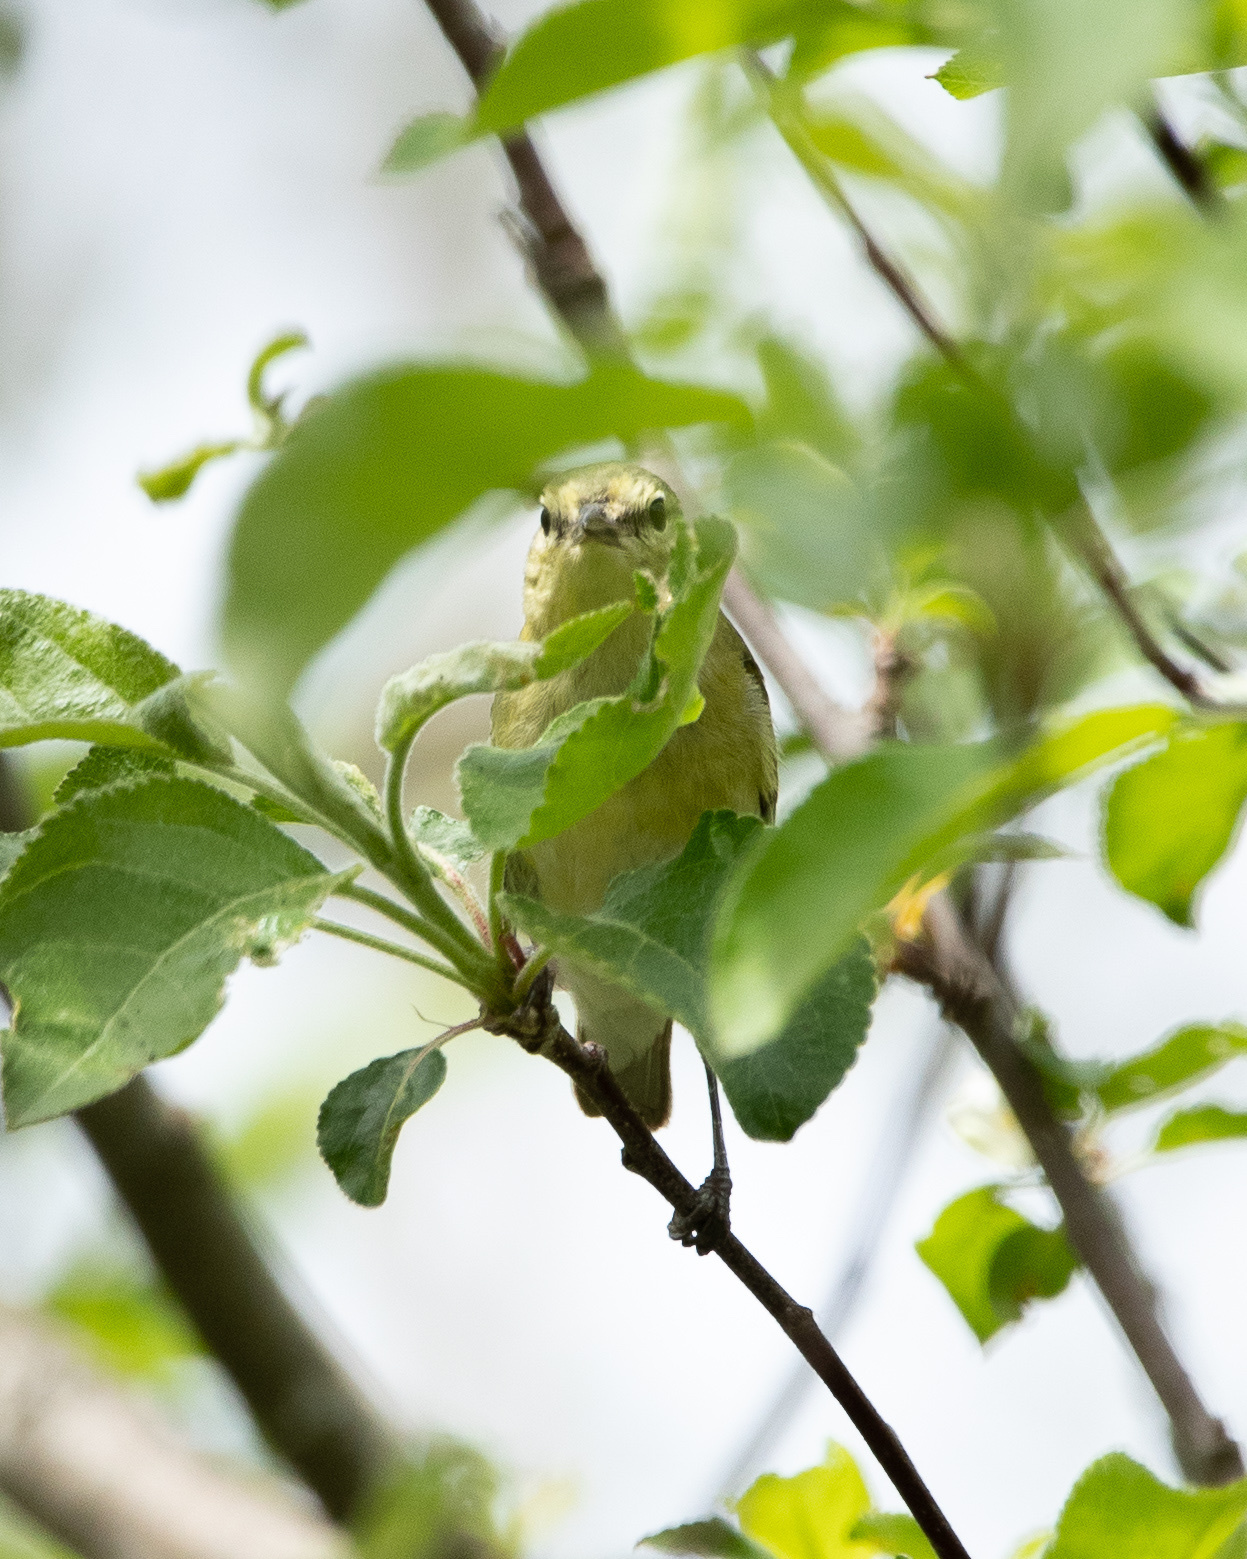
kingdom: Animalia
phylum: Chordata
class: Aves
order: Passeriformes
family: Parulidae
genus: Leiothlypis
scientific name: Leiothlypis peregrina
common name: Tennessee warbler
